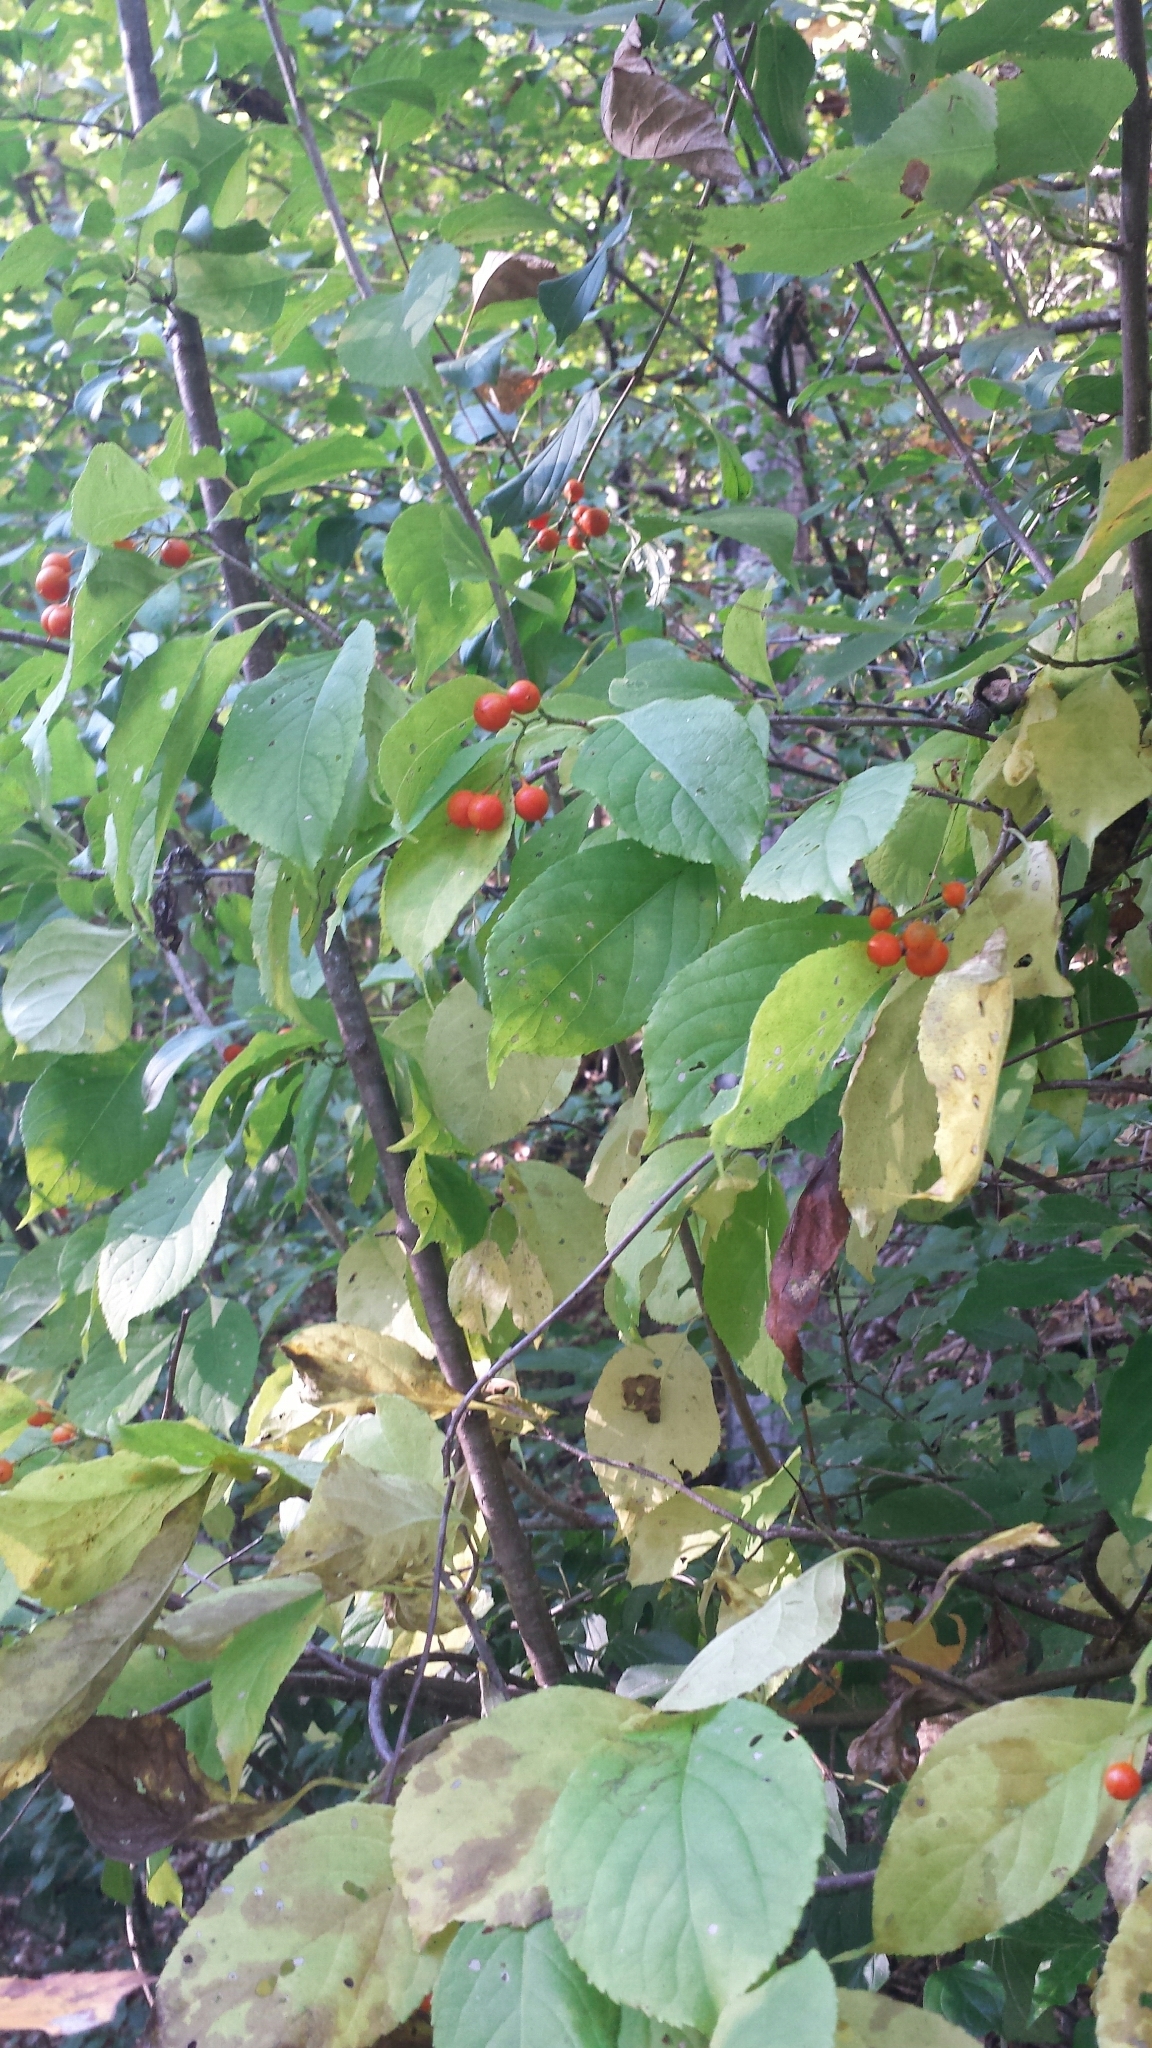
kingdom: Plantae
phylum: Tracheophyta
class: Magnoliopsida
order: Celastrales
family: Celastraceae
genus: Celastrus
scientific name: Celastrus scandens
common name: American bittersweet
